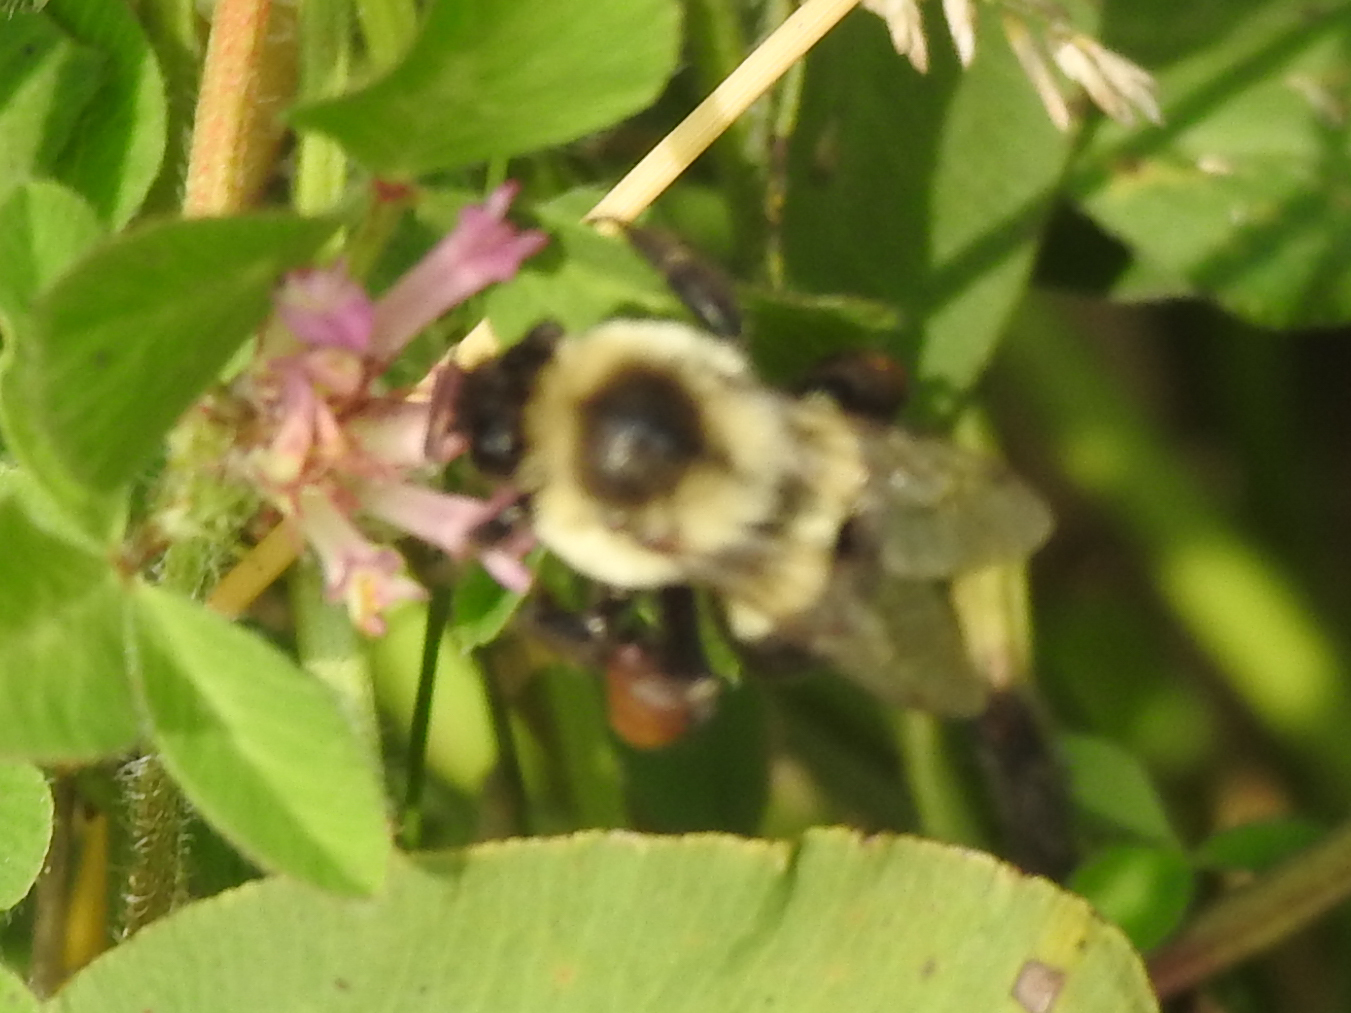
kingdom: Animalia
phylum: Arthropoda
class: Insecta
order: Hymenoptera
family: Apidae
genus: Bombus
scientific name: Bombus impatiens
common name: Common eastern bumble bee
